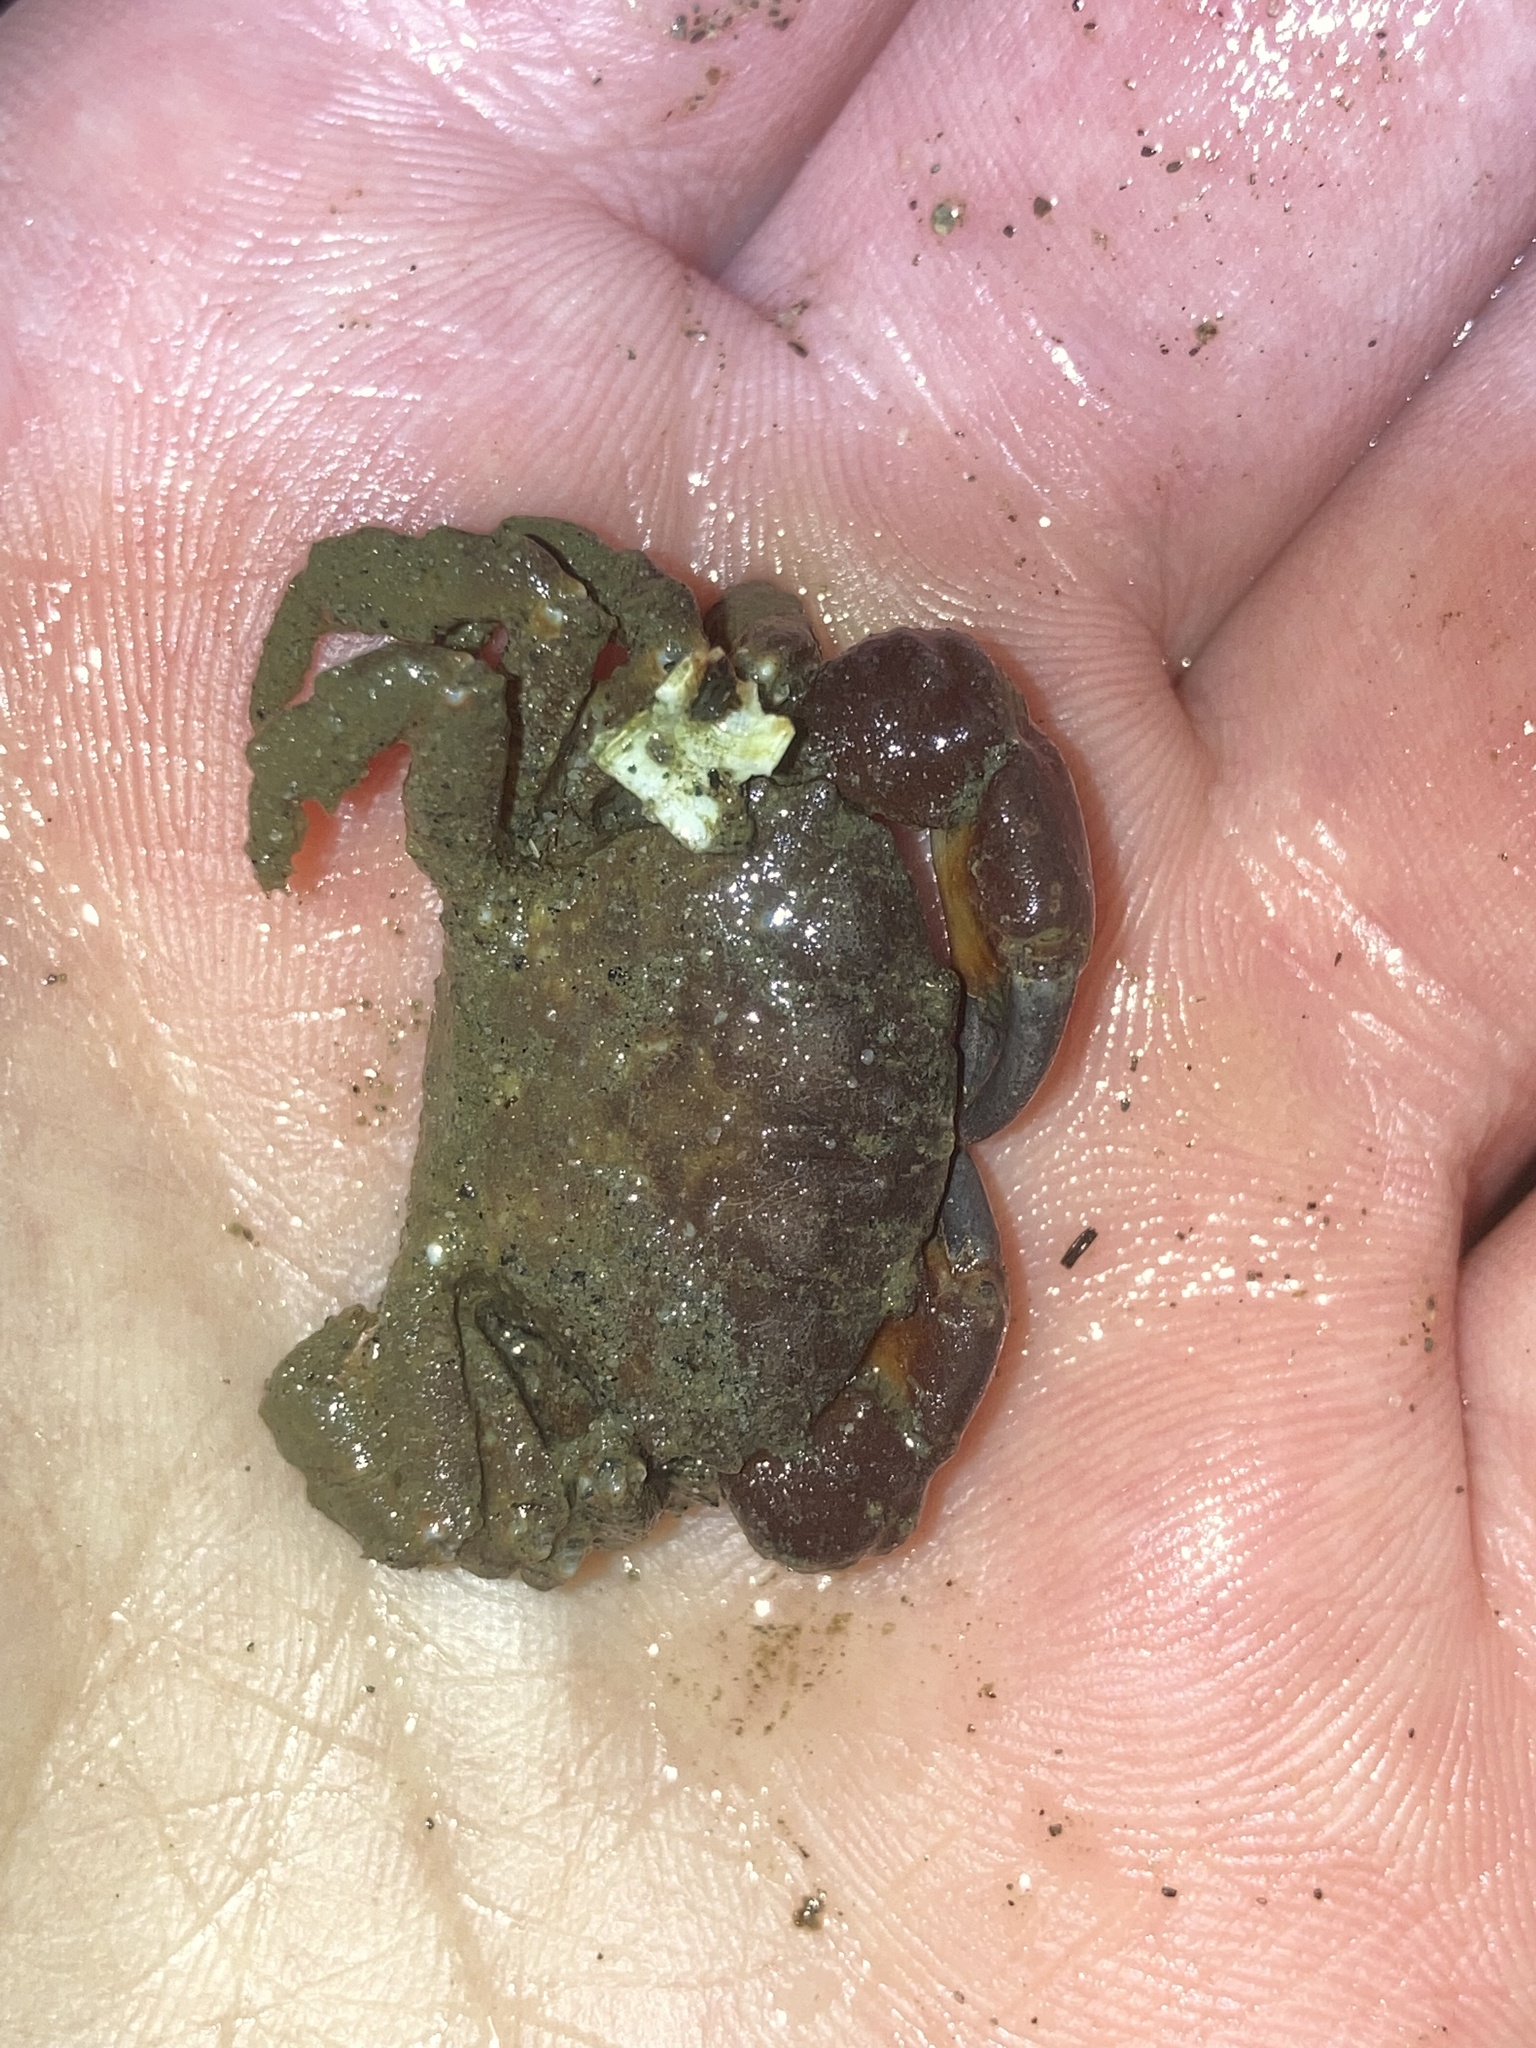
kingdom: Animalia
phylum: Arthropoda
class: Malacostraca
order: Decapoda
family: Panopeidae
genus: Lophopanopeus
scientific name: Lophopanopeus bellus
